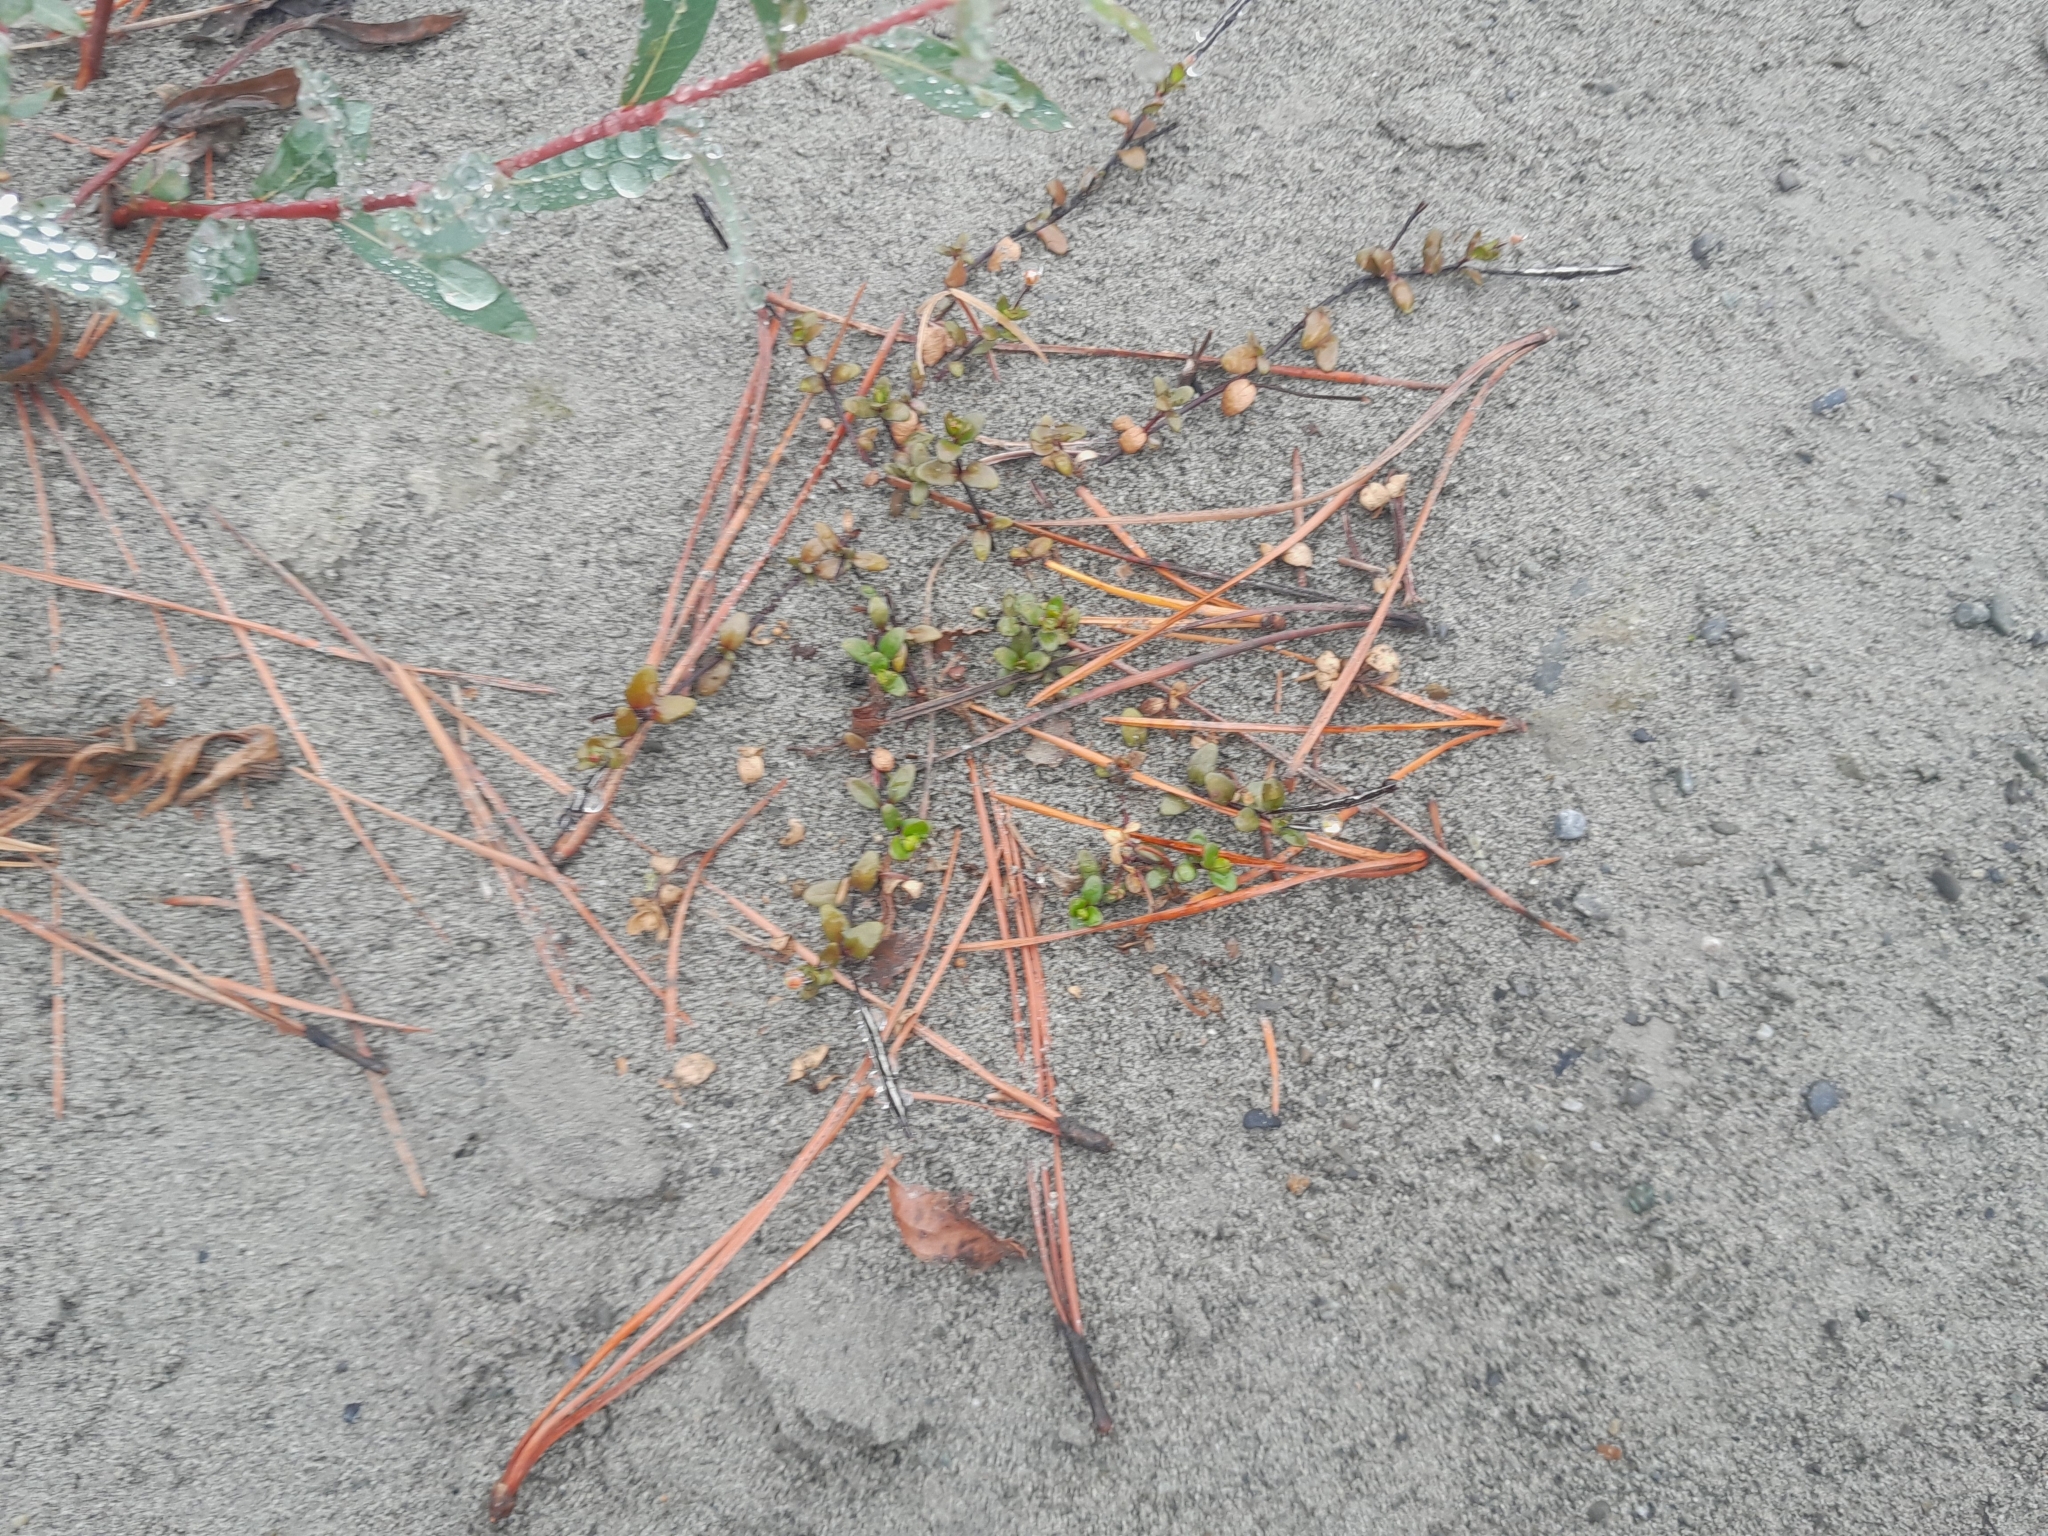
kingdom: Plantae
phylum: Tracheophyta
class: Magnoliopsida
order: Myrtales
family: Onagraceae
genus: Epilobium
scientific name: Epilobium microphyllum
